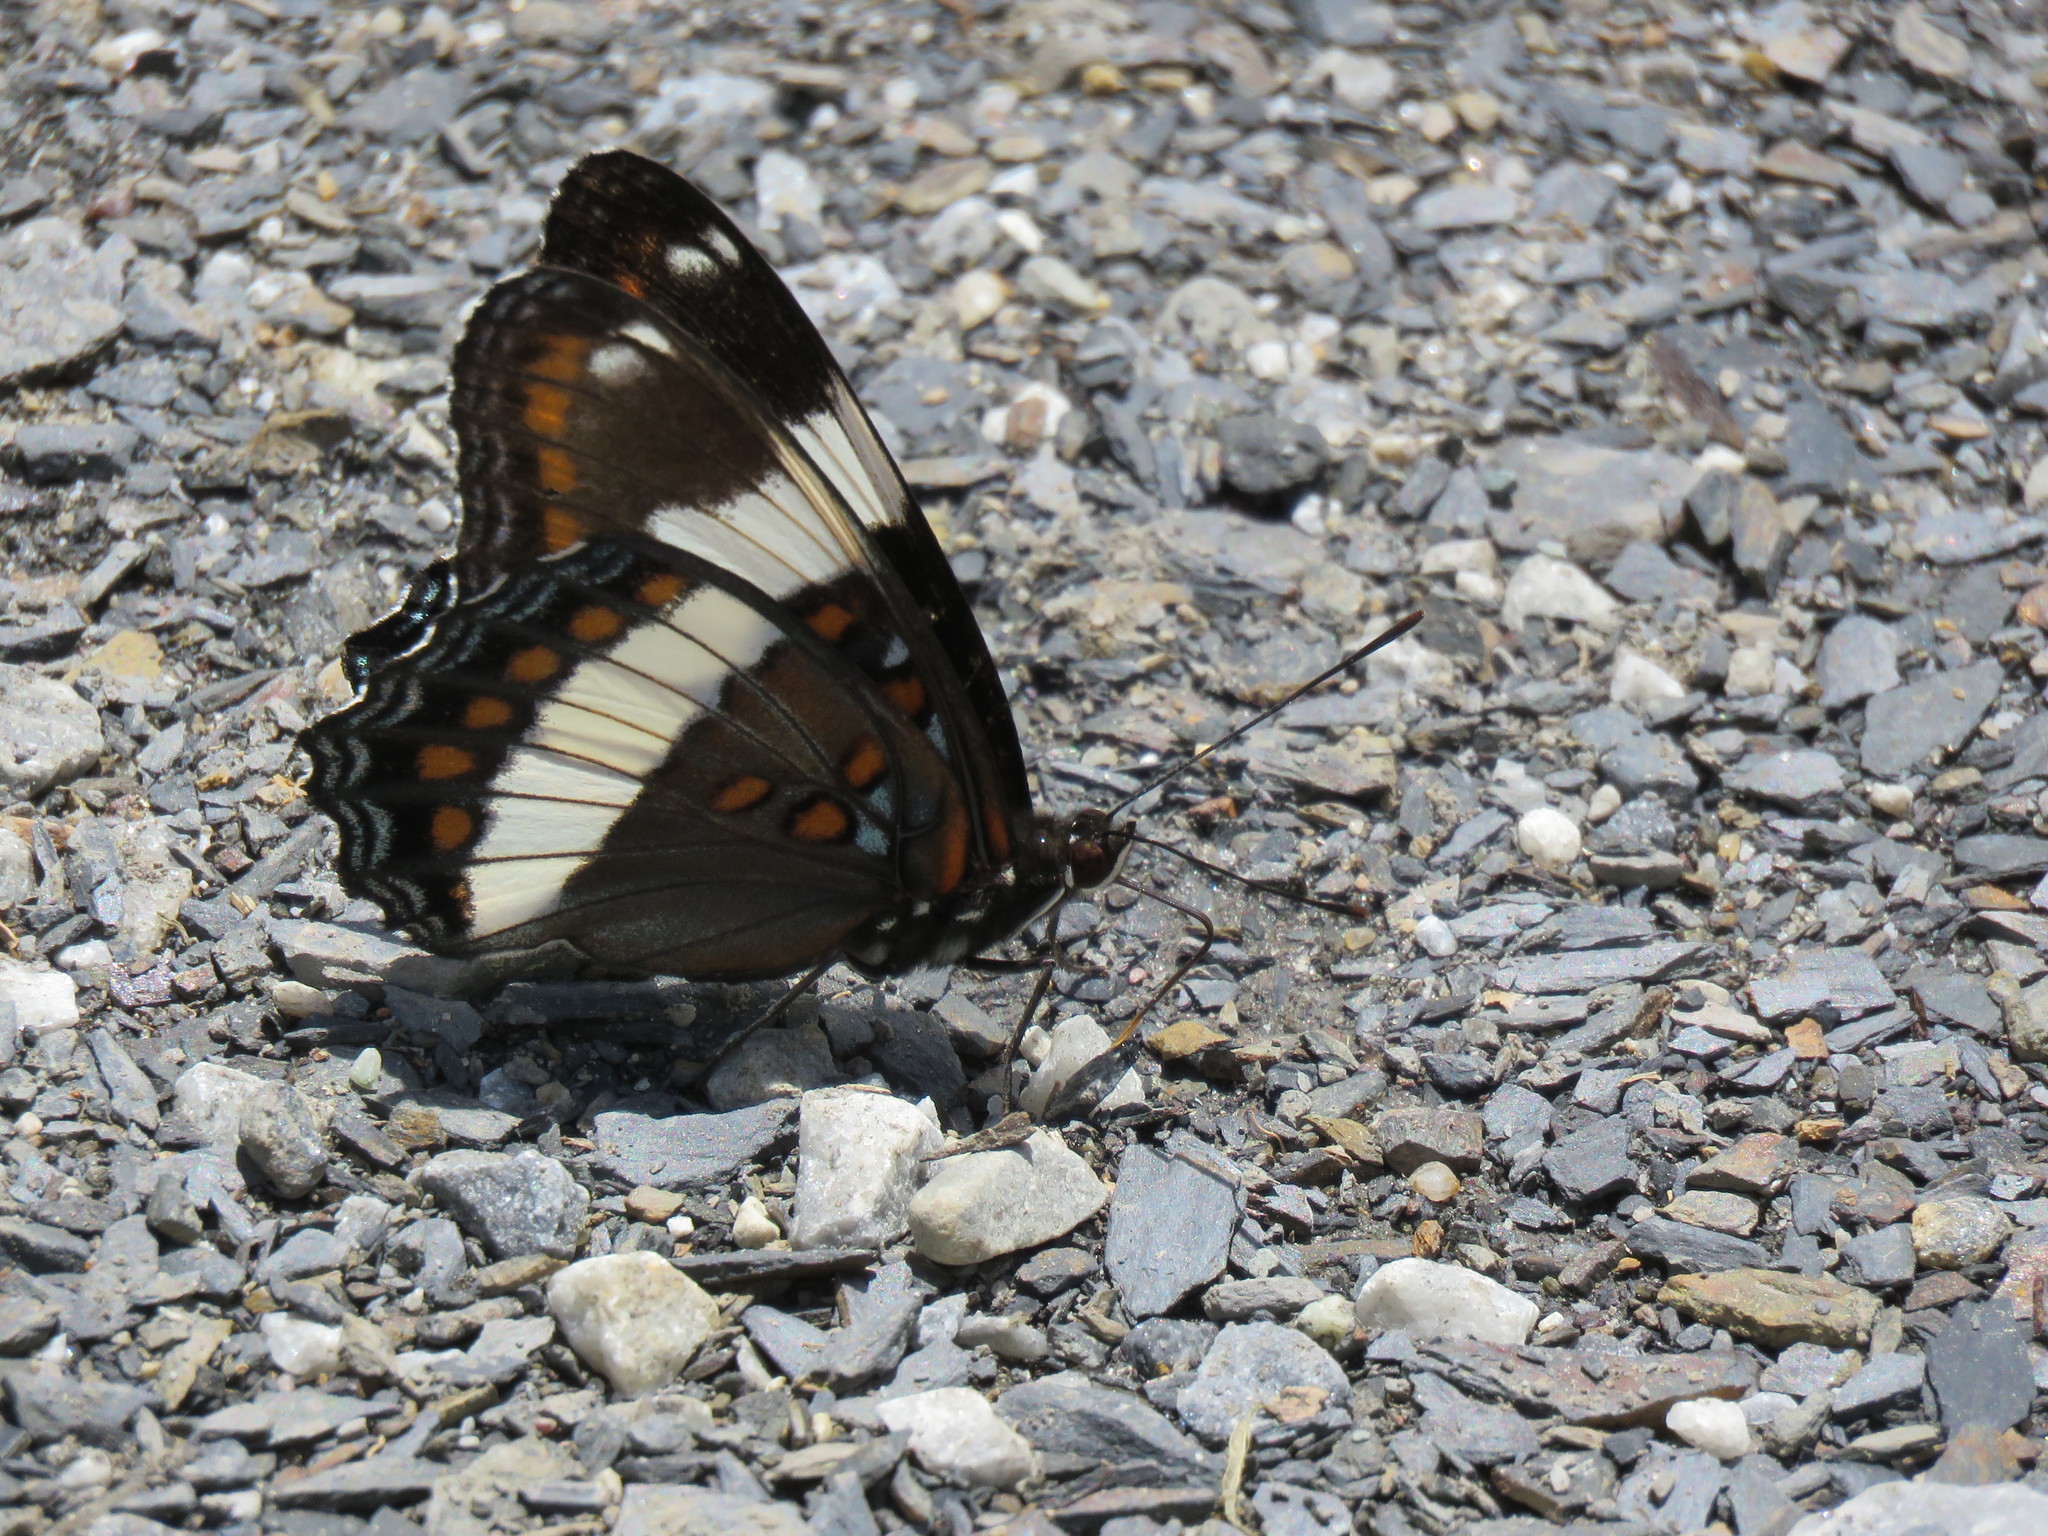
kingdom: Animalia
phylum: Arthropoda
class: Insecta
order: Lepidoptera
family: Nymphalidae
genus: Limenitis
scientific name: Limenitis arthemis
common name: Red-spotted admiral
